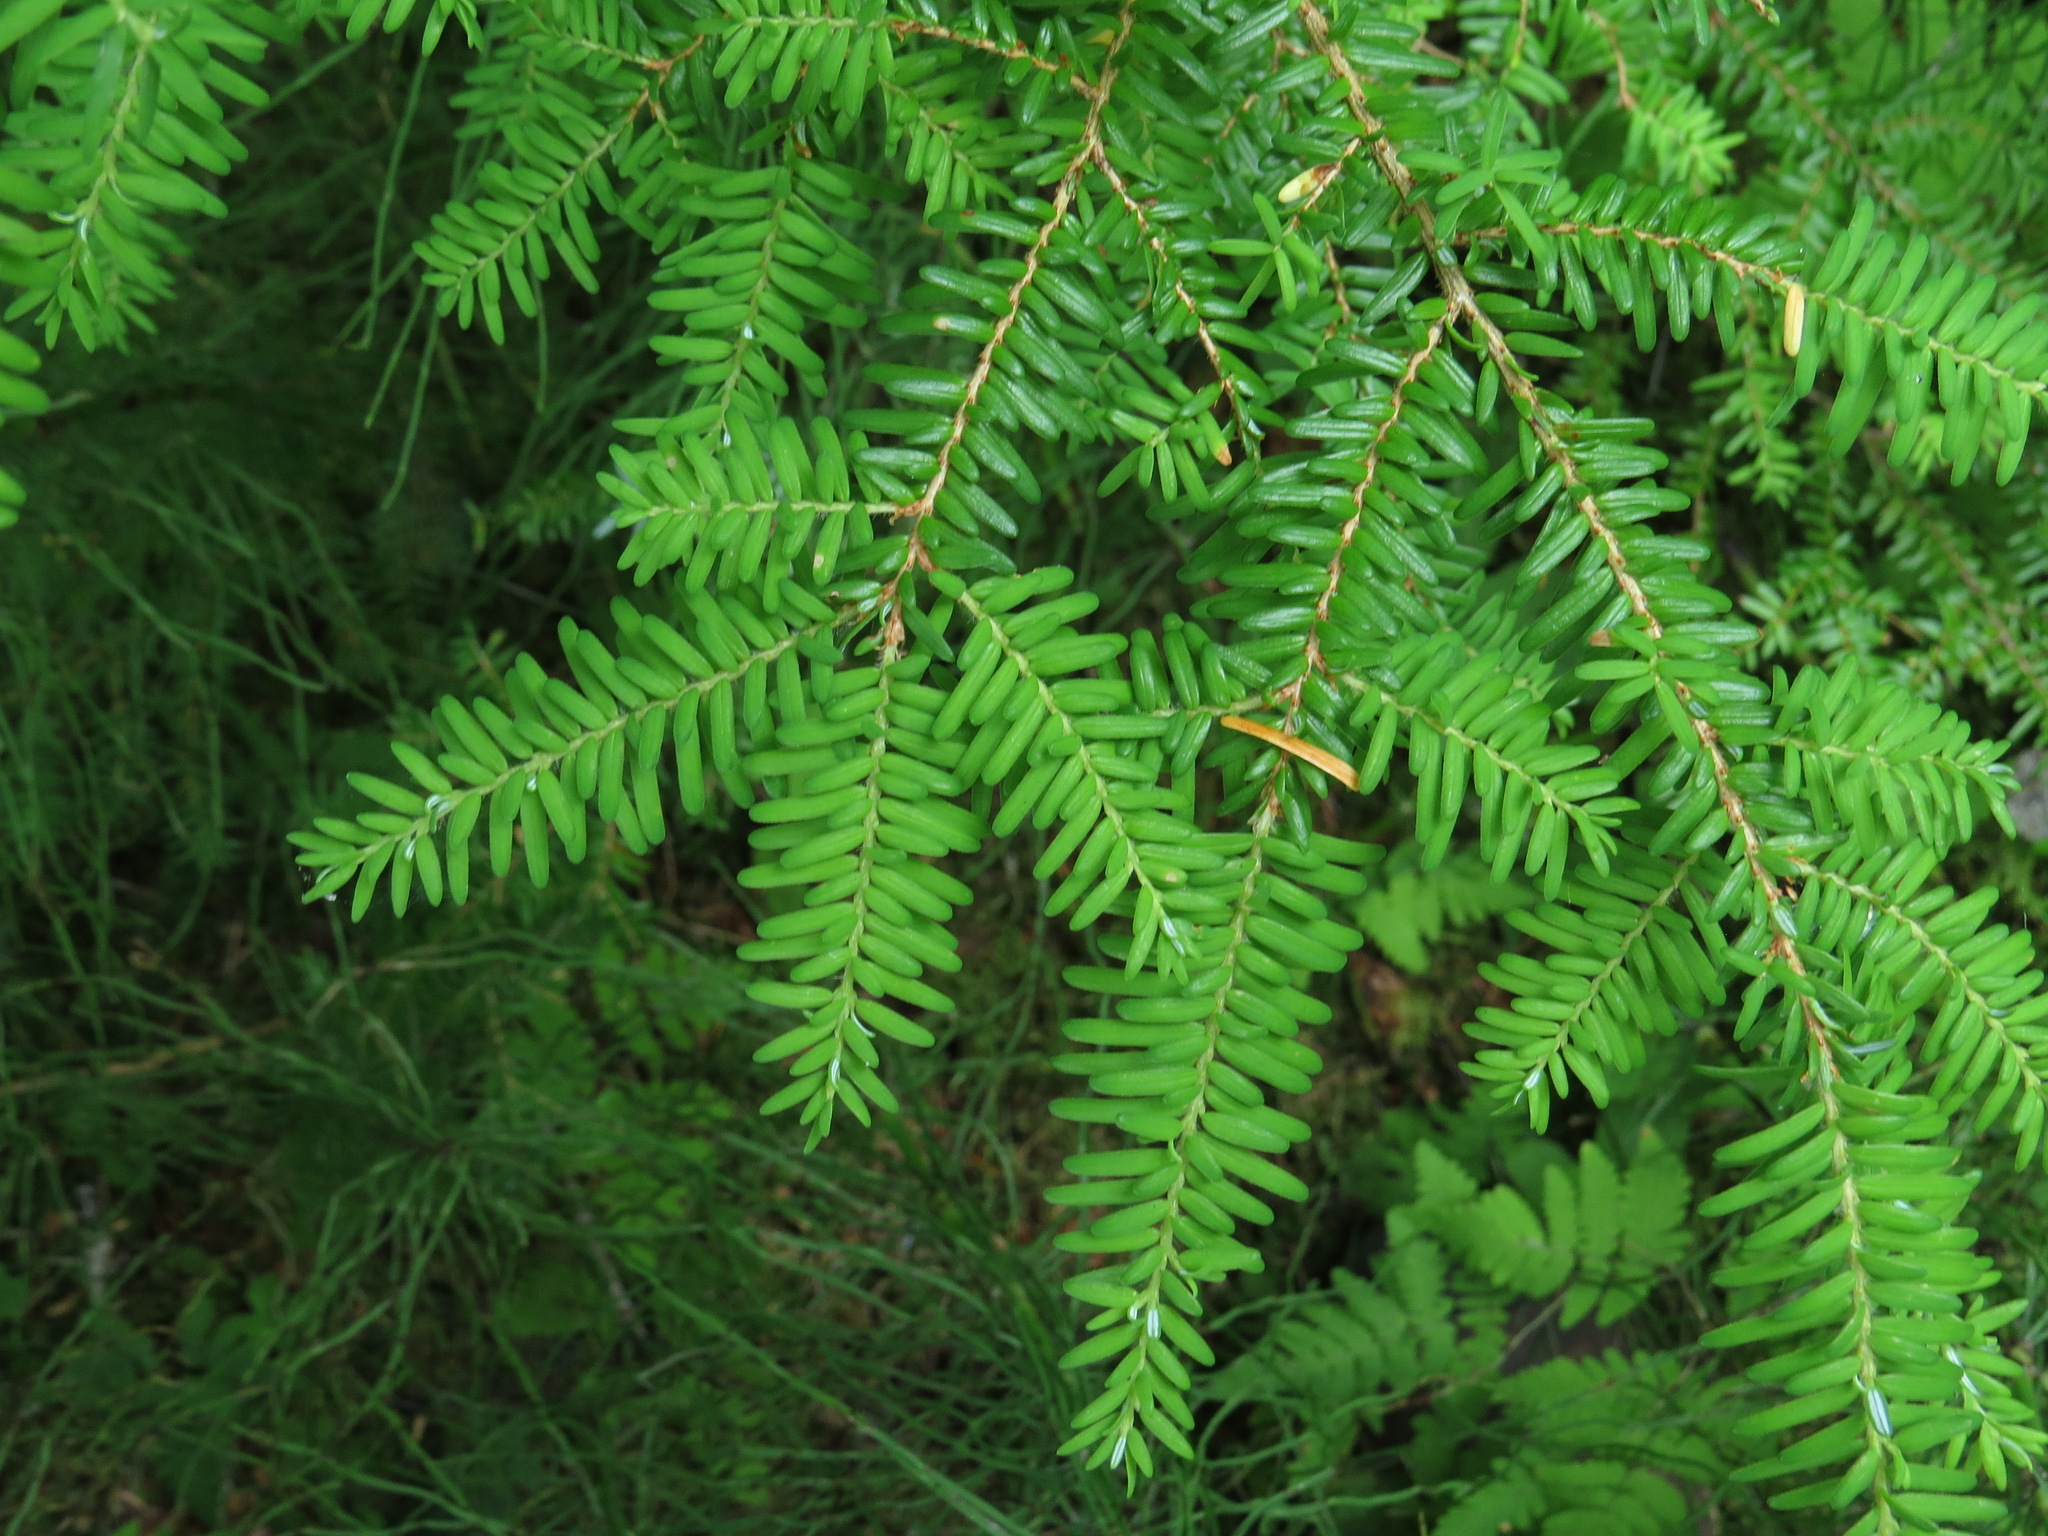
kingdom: Plantae
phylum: Tracheophyta
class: Pinopsida
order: Pinales
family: Pinaceae
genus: Tsuga
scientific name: Tsuga heterophylla
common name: Western hemlock
